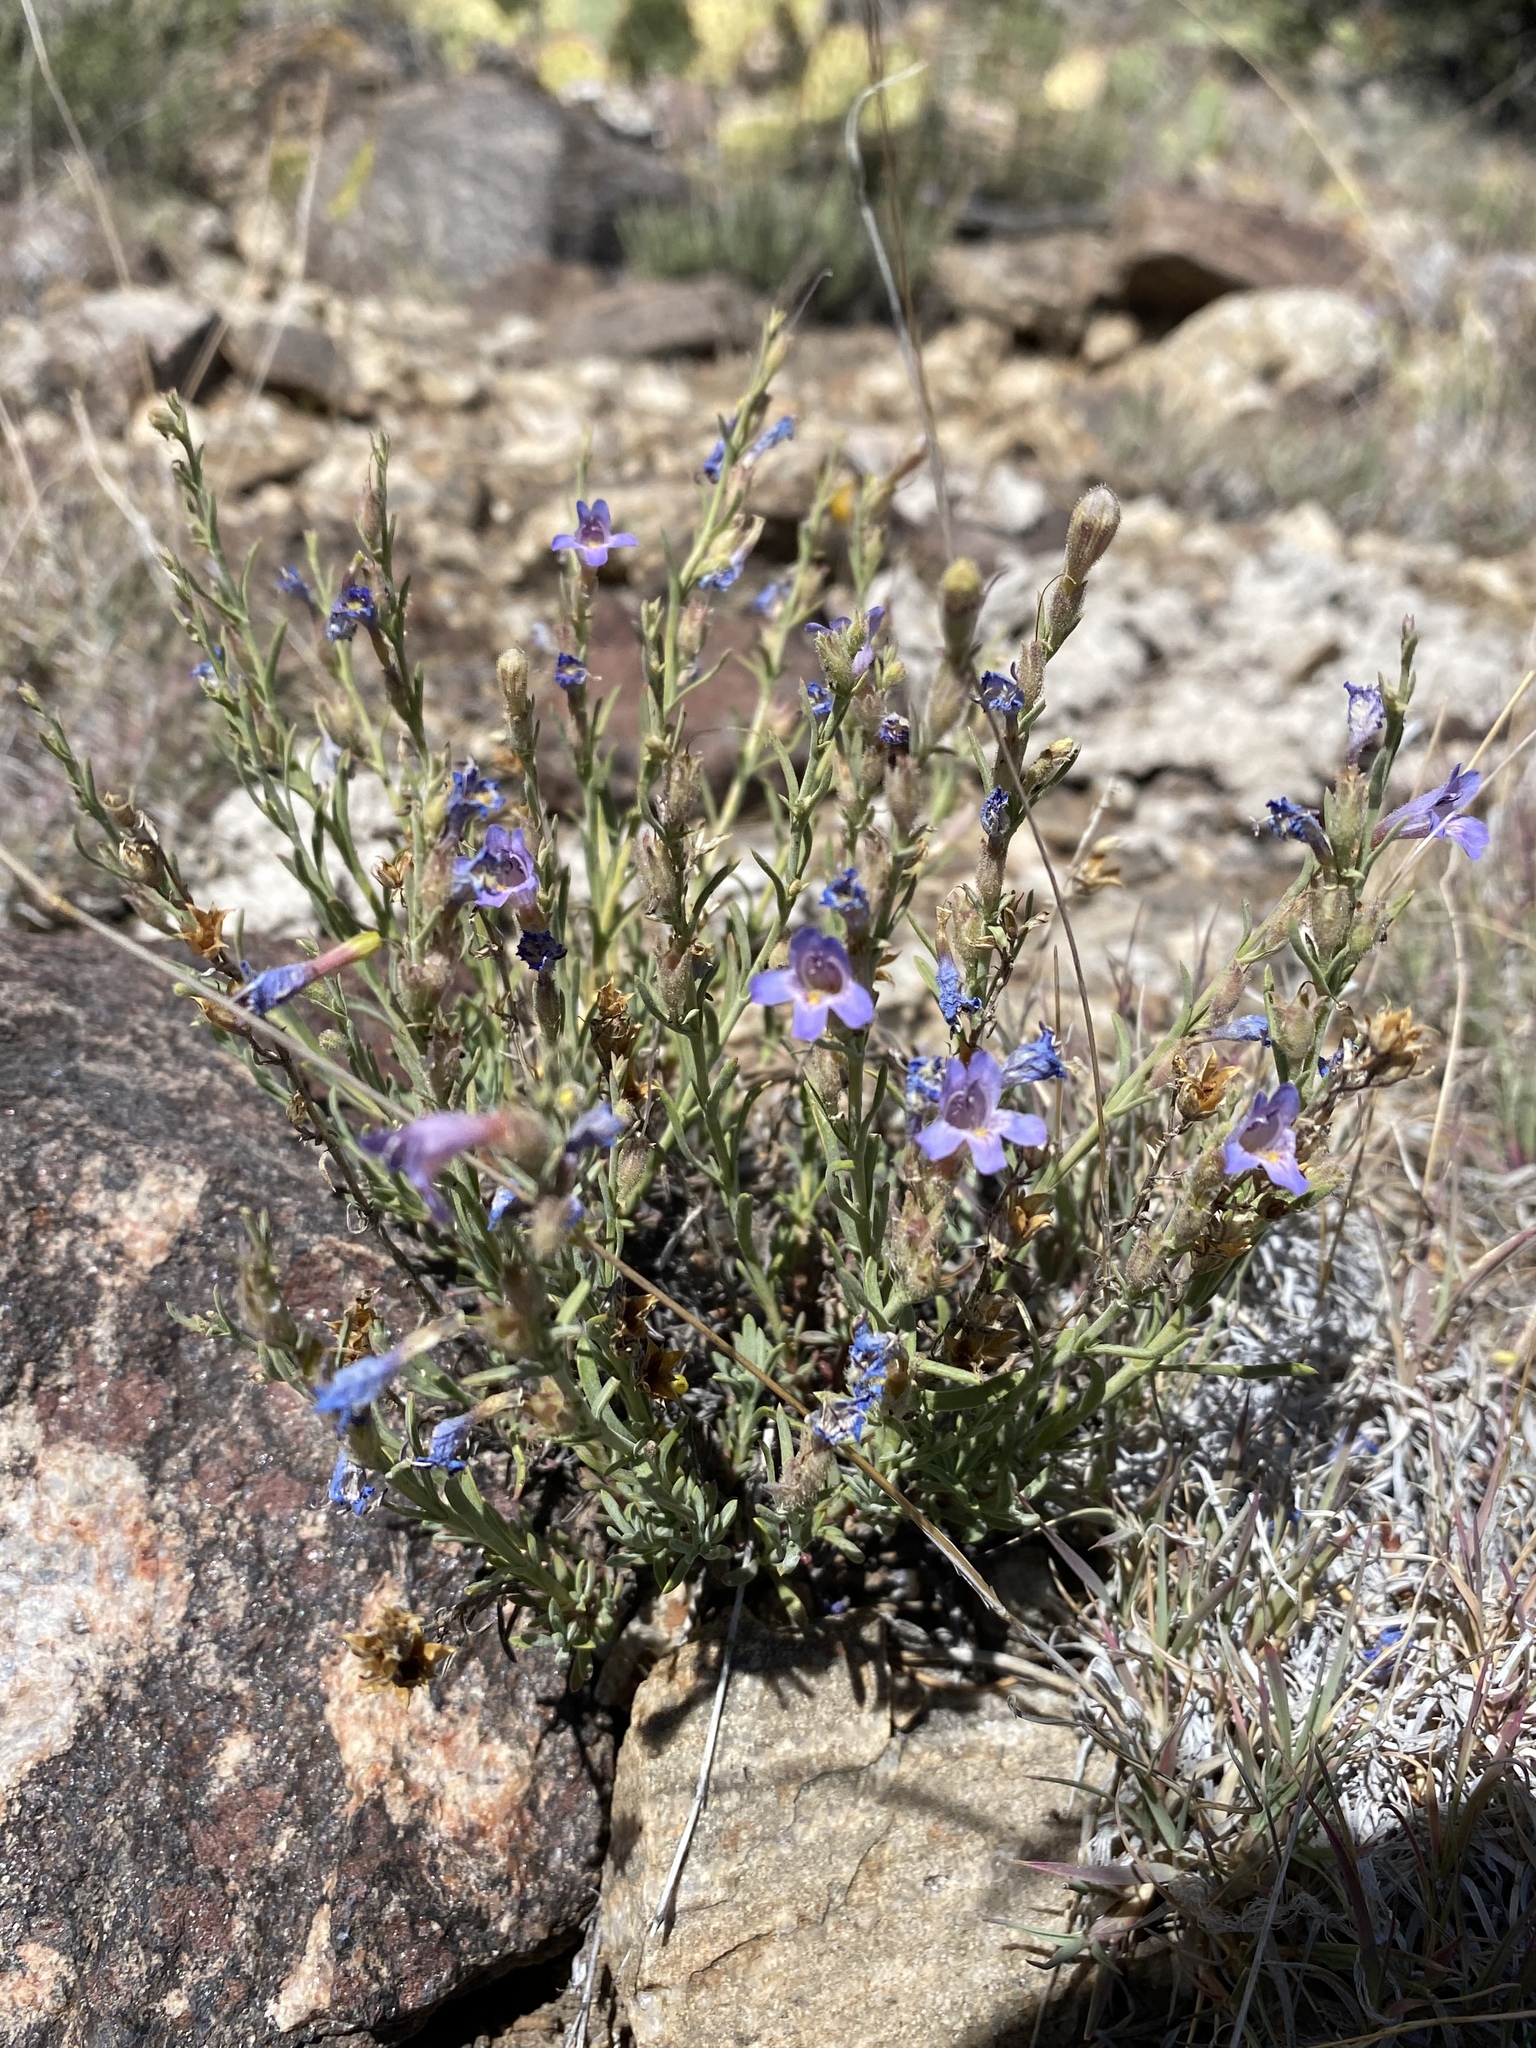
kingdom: Plantae
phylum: Tracheophyta
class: Magnoliopsida
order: Lamiales
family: Plantaginaceae
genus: Penstemon
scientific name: Penstemon linarioides
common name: Siler's penstemon
